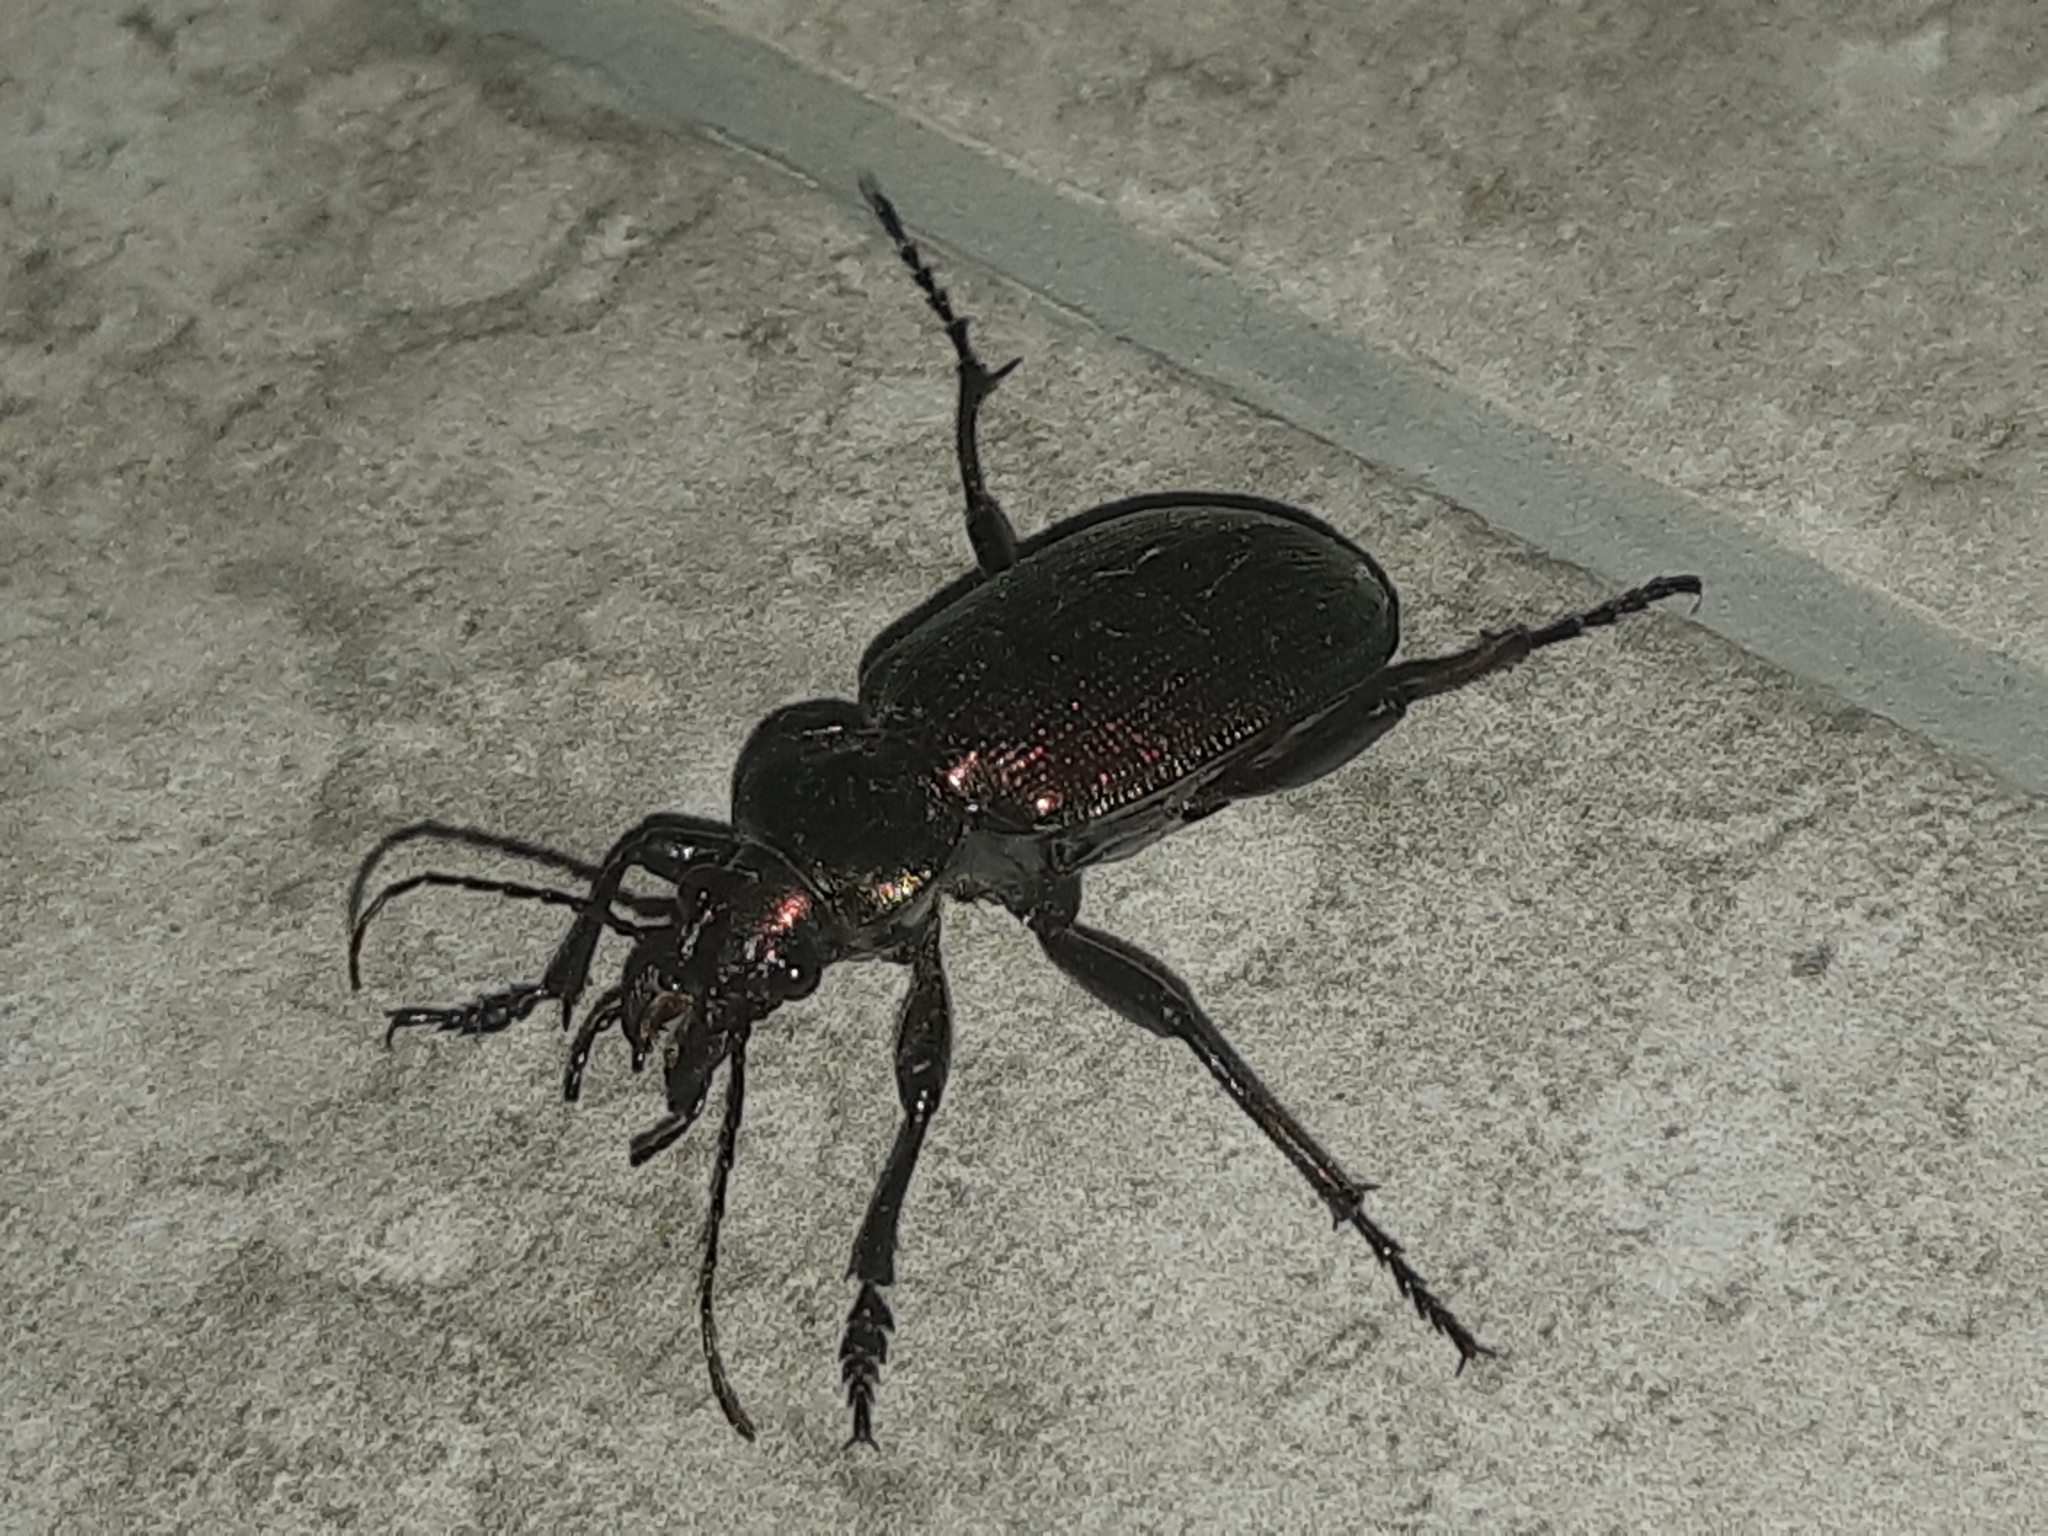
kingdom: Animalia
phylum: Arthropoda
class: Insecta
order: Coleoptera
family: Carabidae
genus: Calosoma
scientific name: Calosoma fulgens
